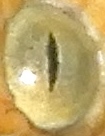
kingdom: Animalia
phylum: Chordata
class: Squamata
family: Colubridae
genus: Trimorphodon
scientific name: Trimorphodon paucimaculatus
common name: Sinaloan lyresnake
